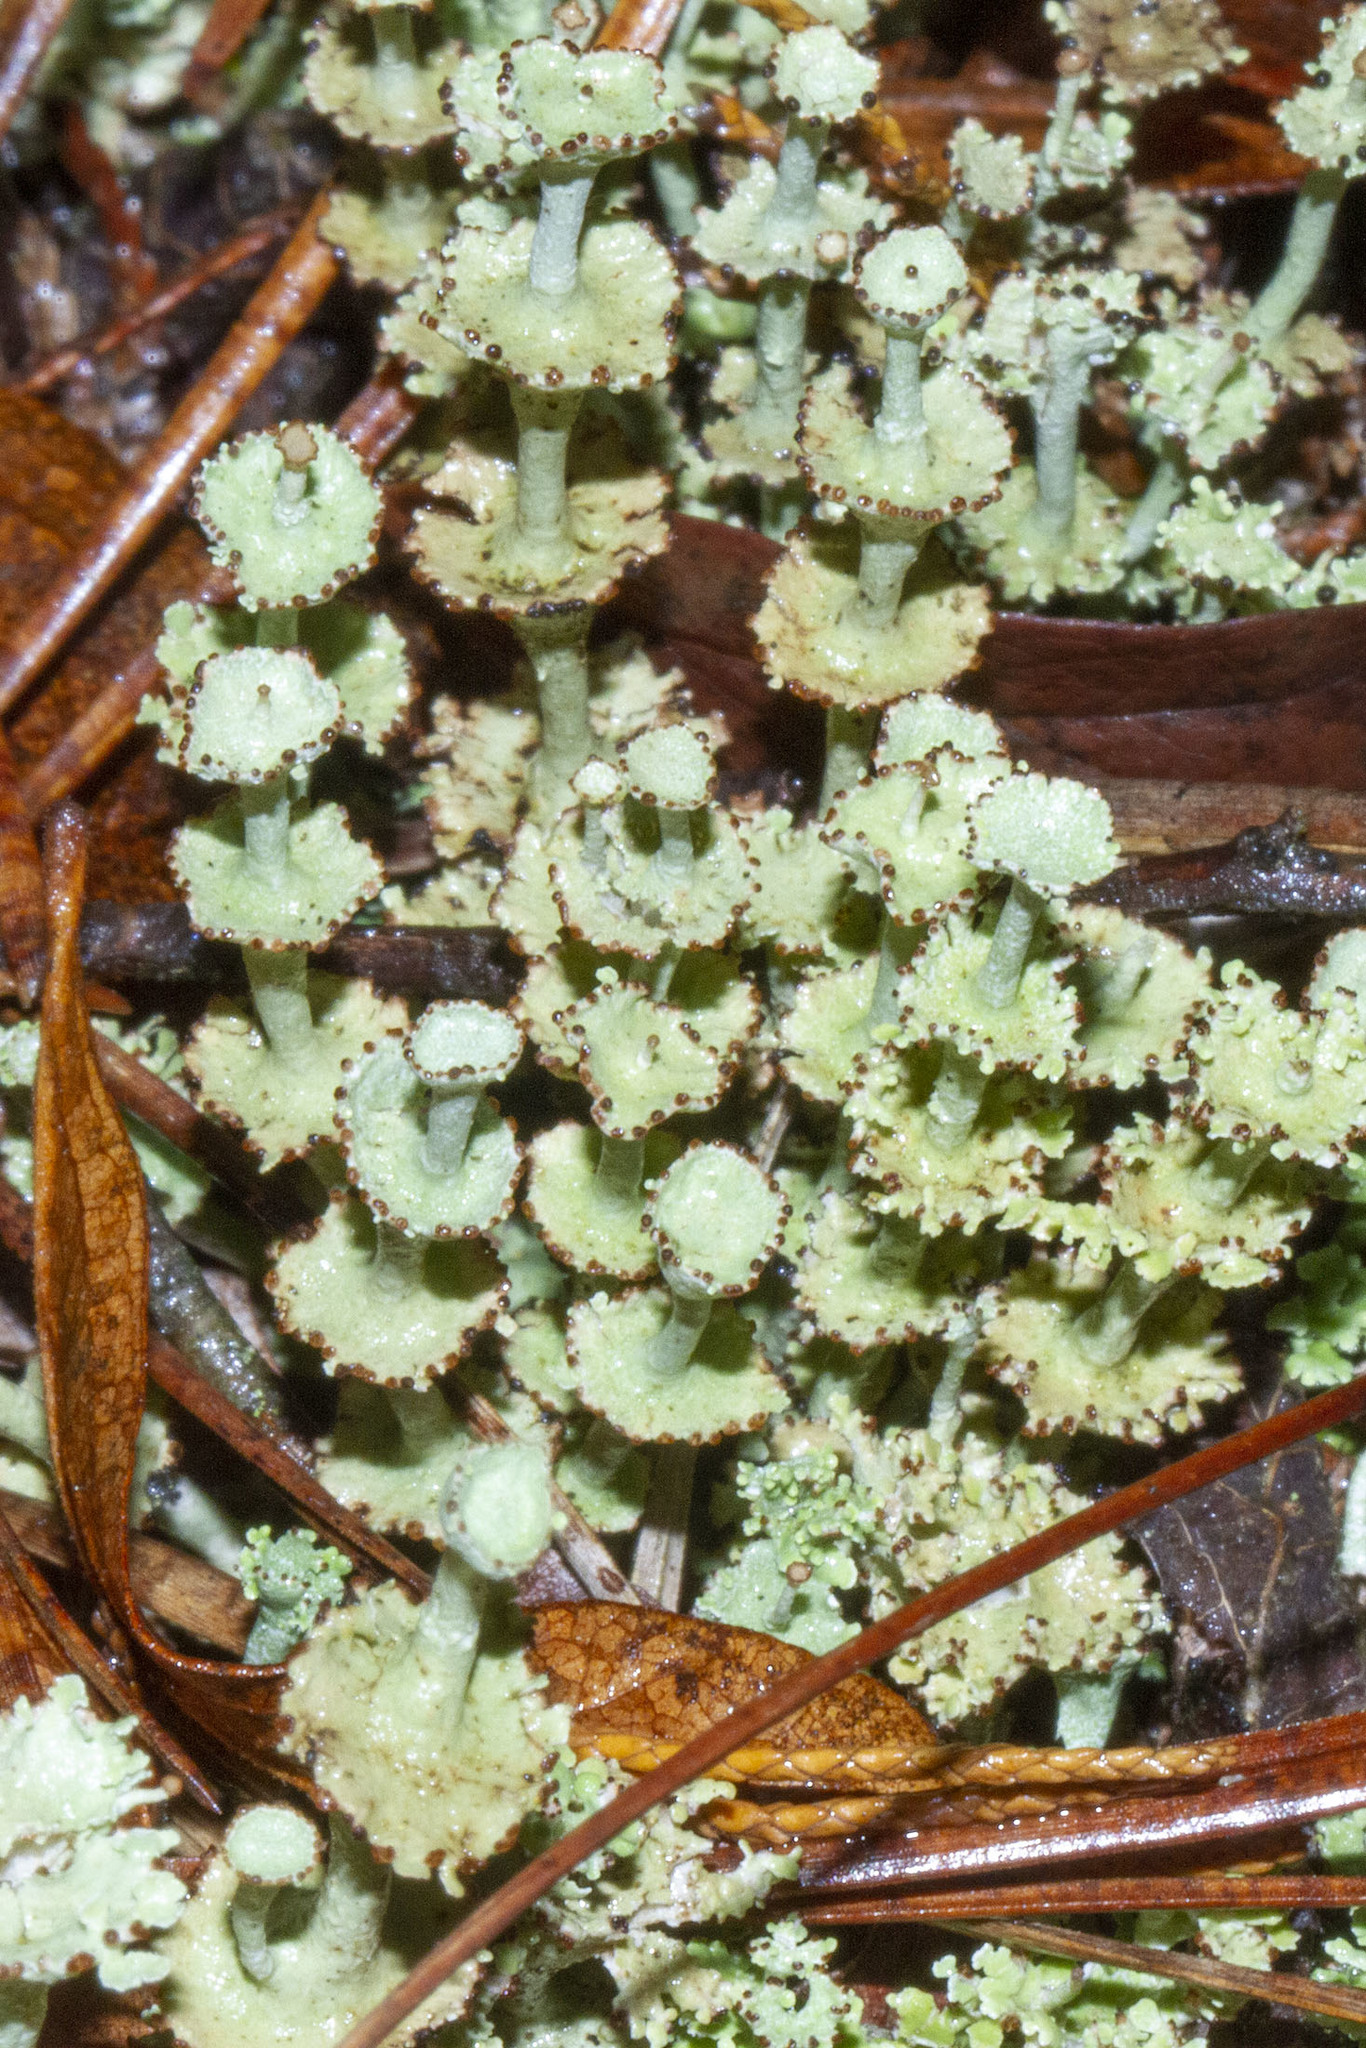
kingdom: Fungi
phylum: Ascomycota
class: Lecanoromycetes
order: Lecanorales
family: Cladoniaceae
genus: Cladonia
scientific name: Cladonia cervicornis
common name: Browned pixie-cup lichen
